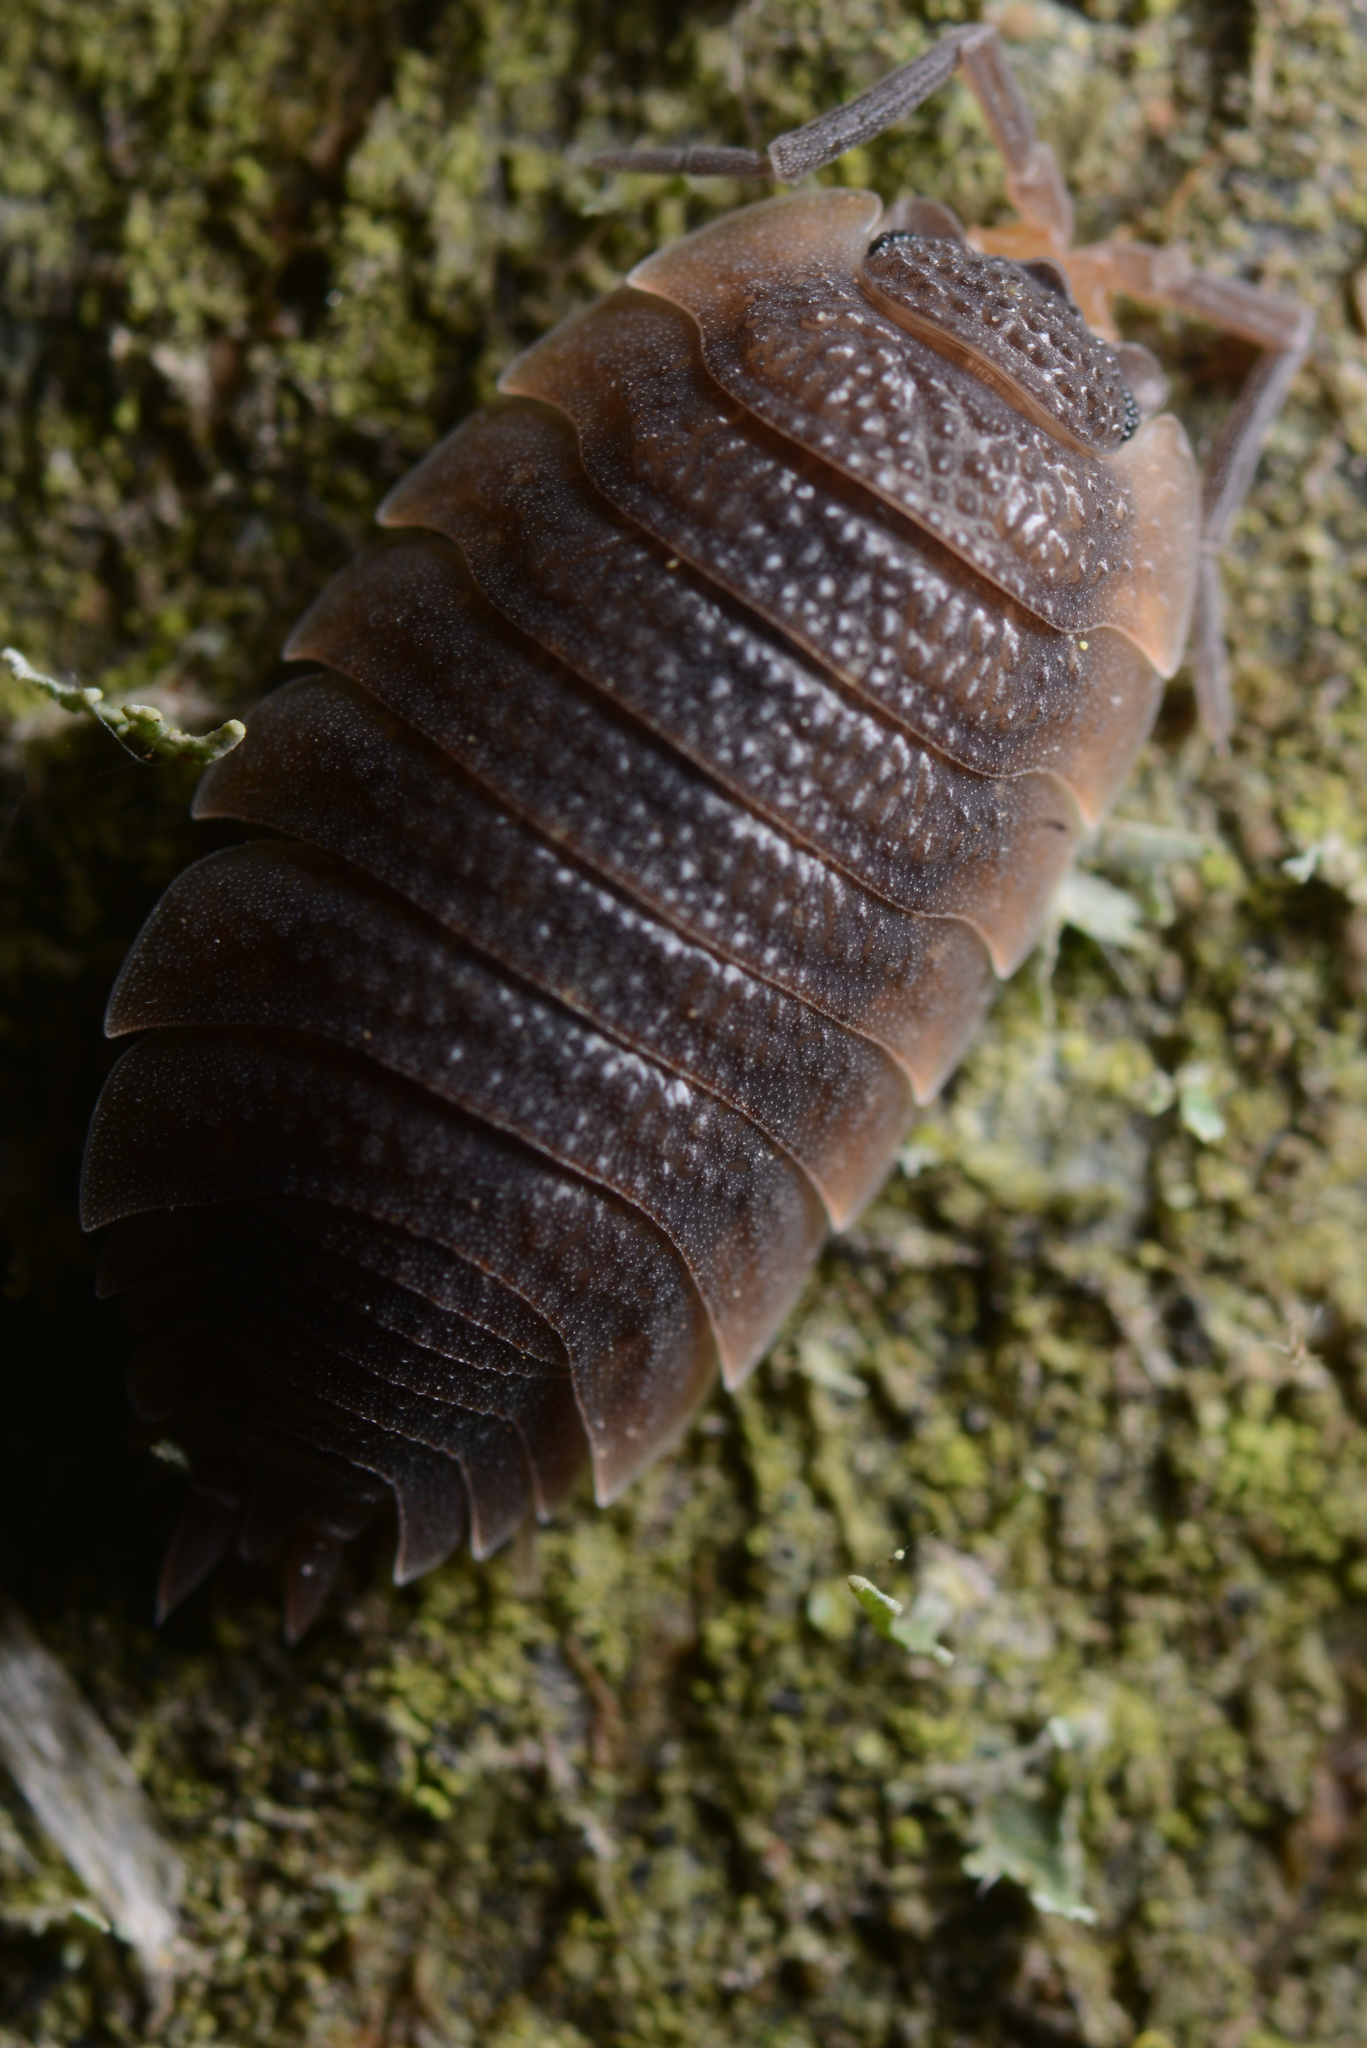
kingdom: Animalia
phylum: Arthropoda
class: Malacostraca
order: Isopoda
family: Porcellionidae
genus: Porcellio
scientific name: Porcellio scaber
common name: Common rough woodlouse
